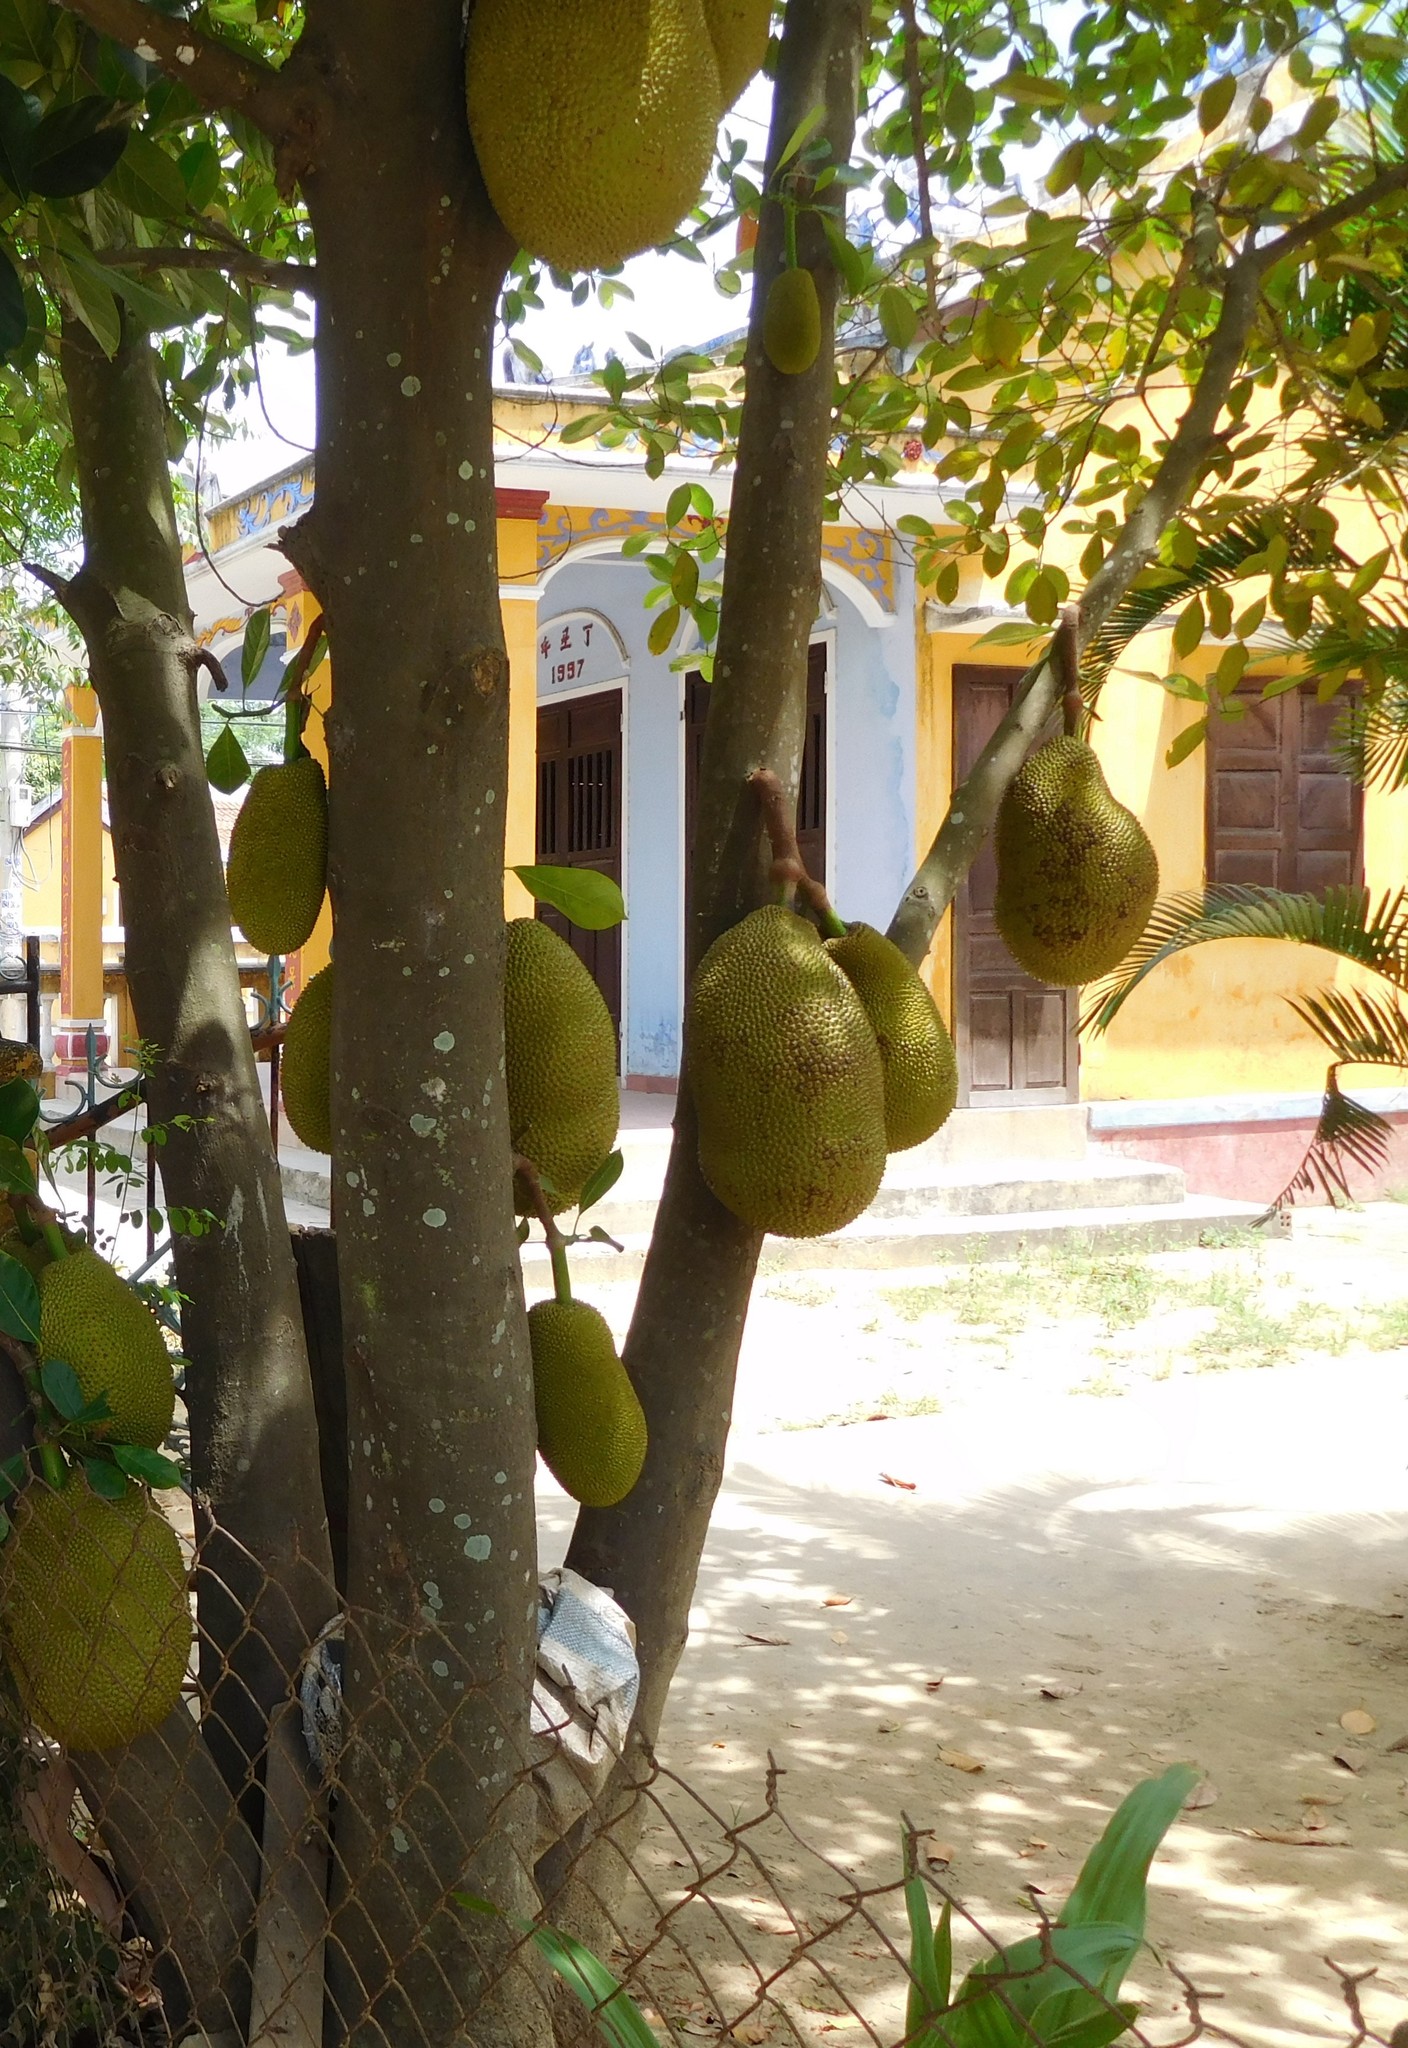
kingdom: Plantae
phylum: Tracheophyta
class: Magnoliopsida
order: Rosales
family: Moraceae
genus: Artocarpus
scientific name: Artocarpus heterophyllus
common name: Jackfruit
